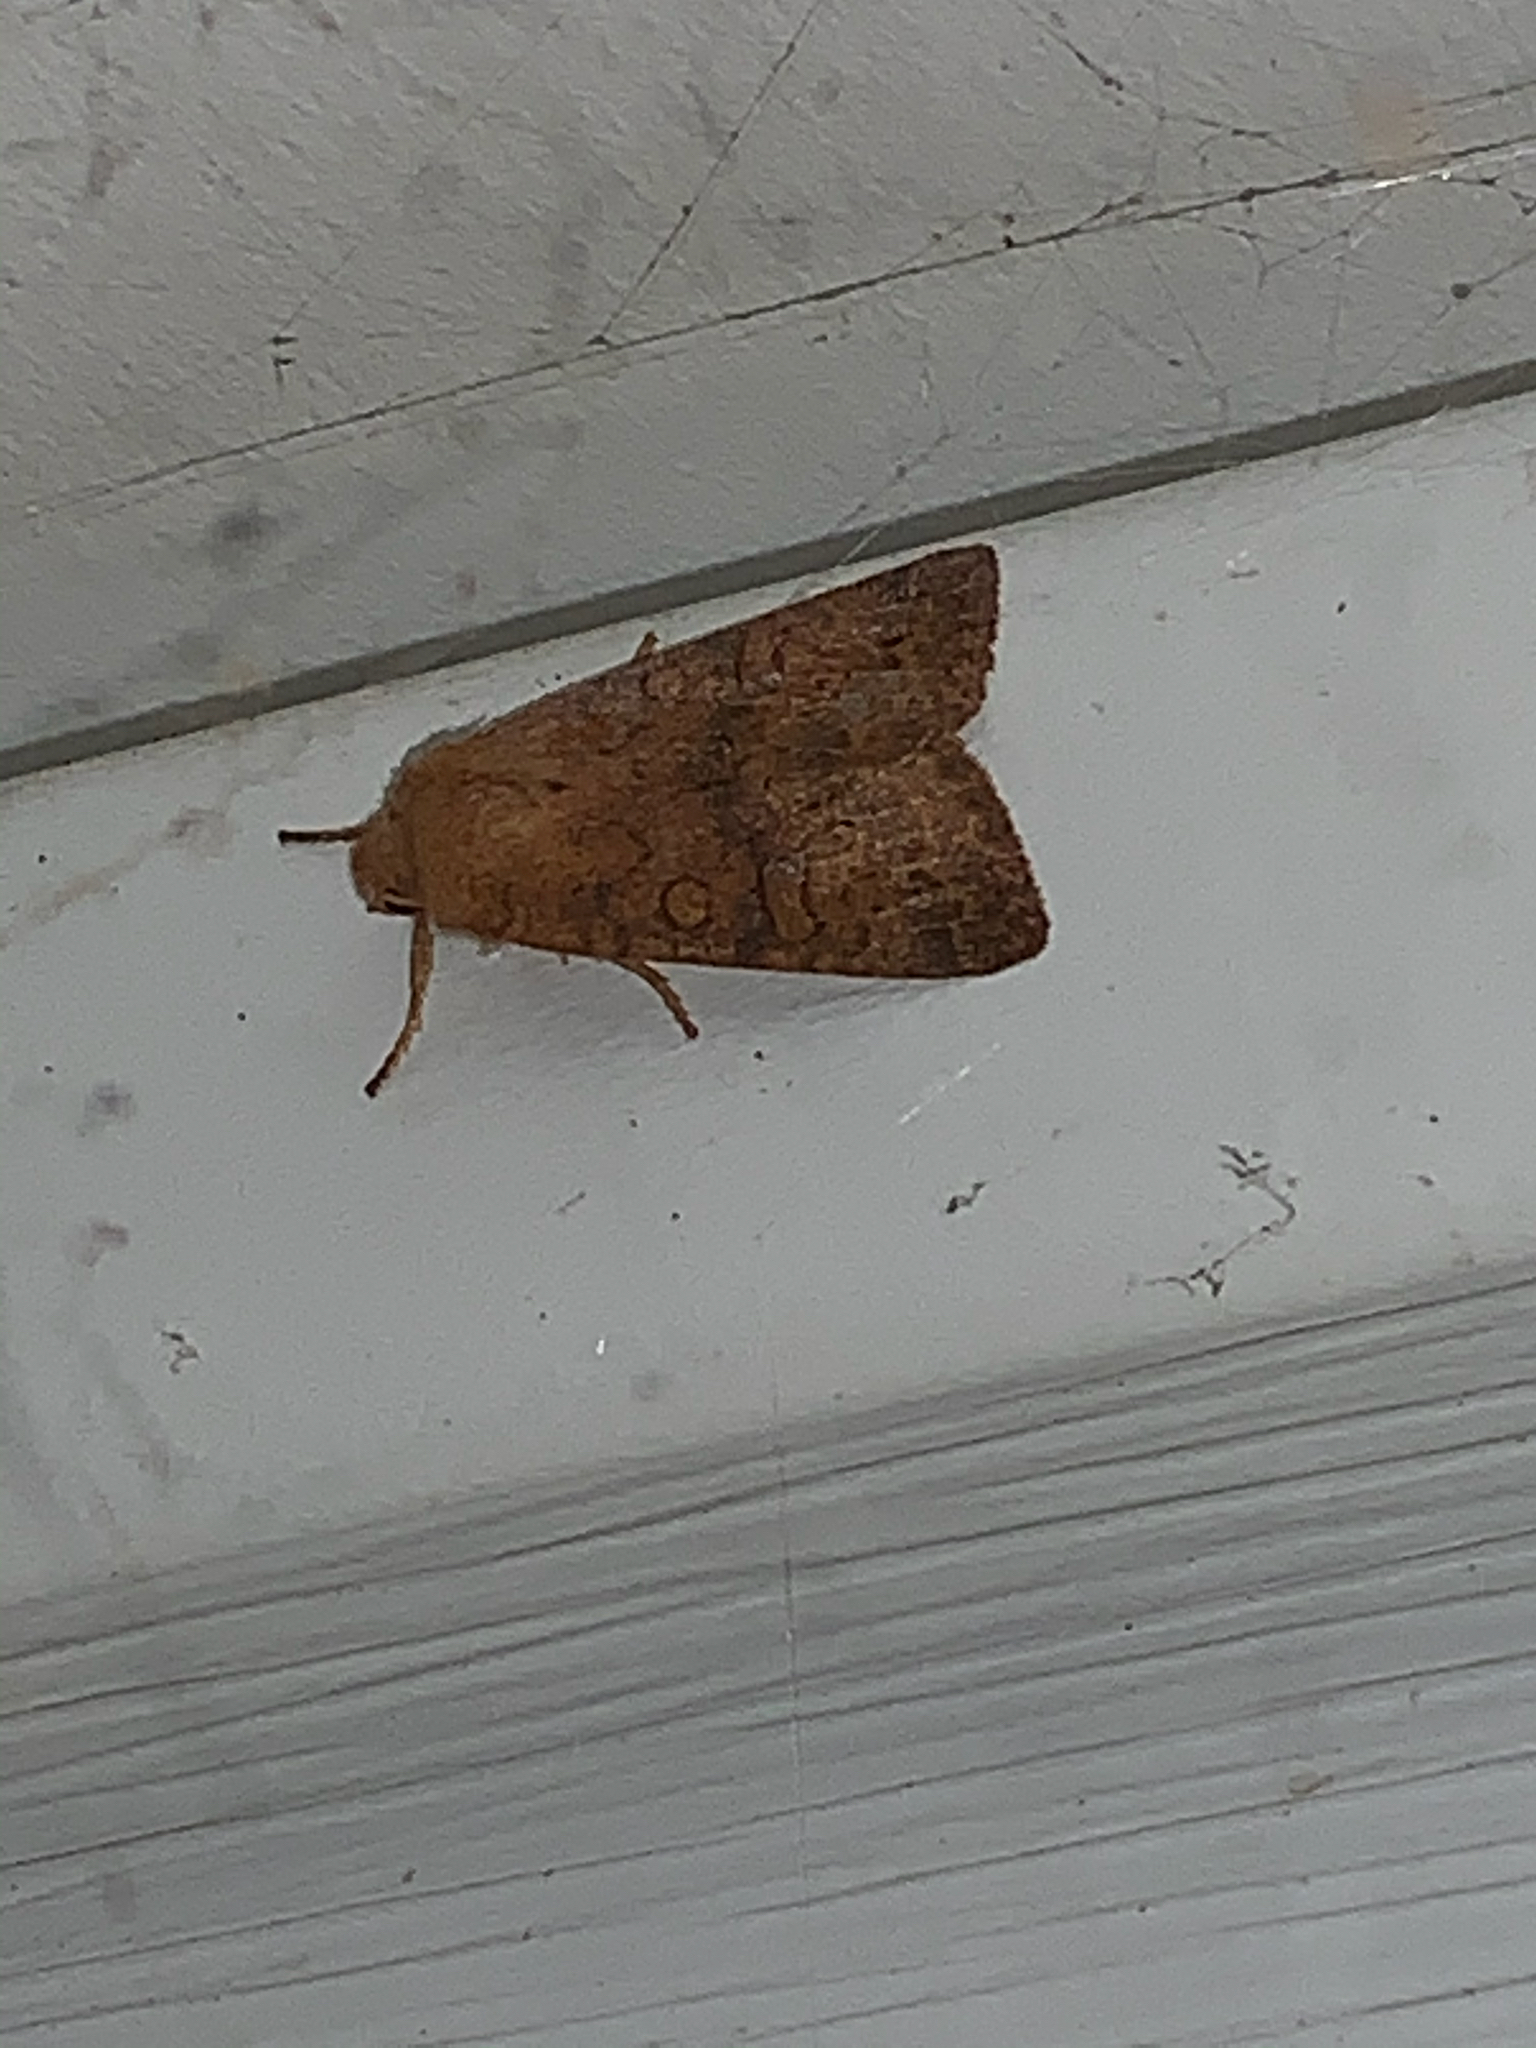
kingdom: Animalia
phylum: Arthropoda
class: Insecta
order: Lepidoptera
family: Noctuidae
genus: Agrochola
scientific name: Agrochola bicolorago
